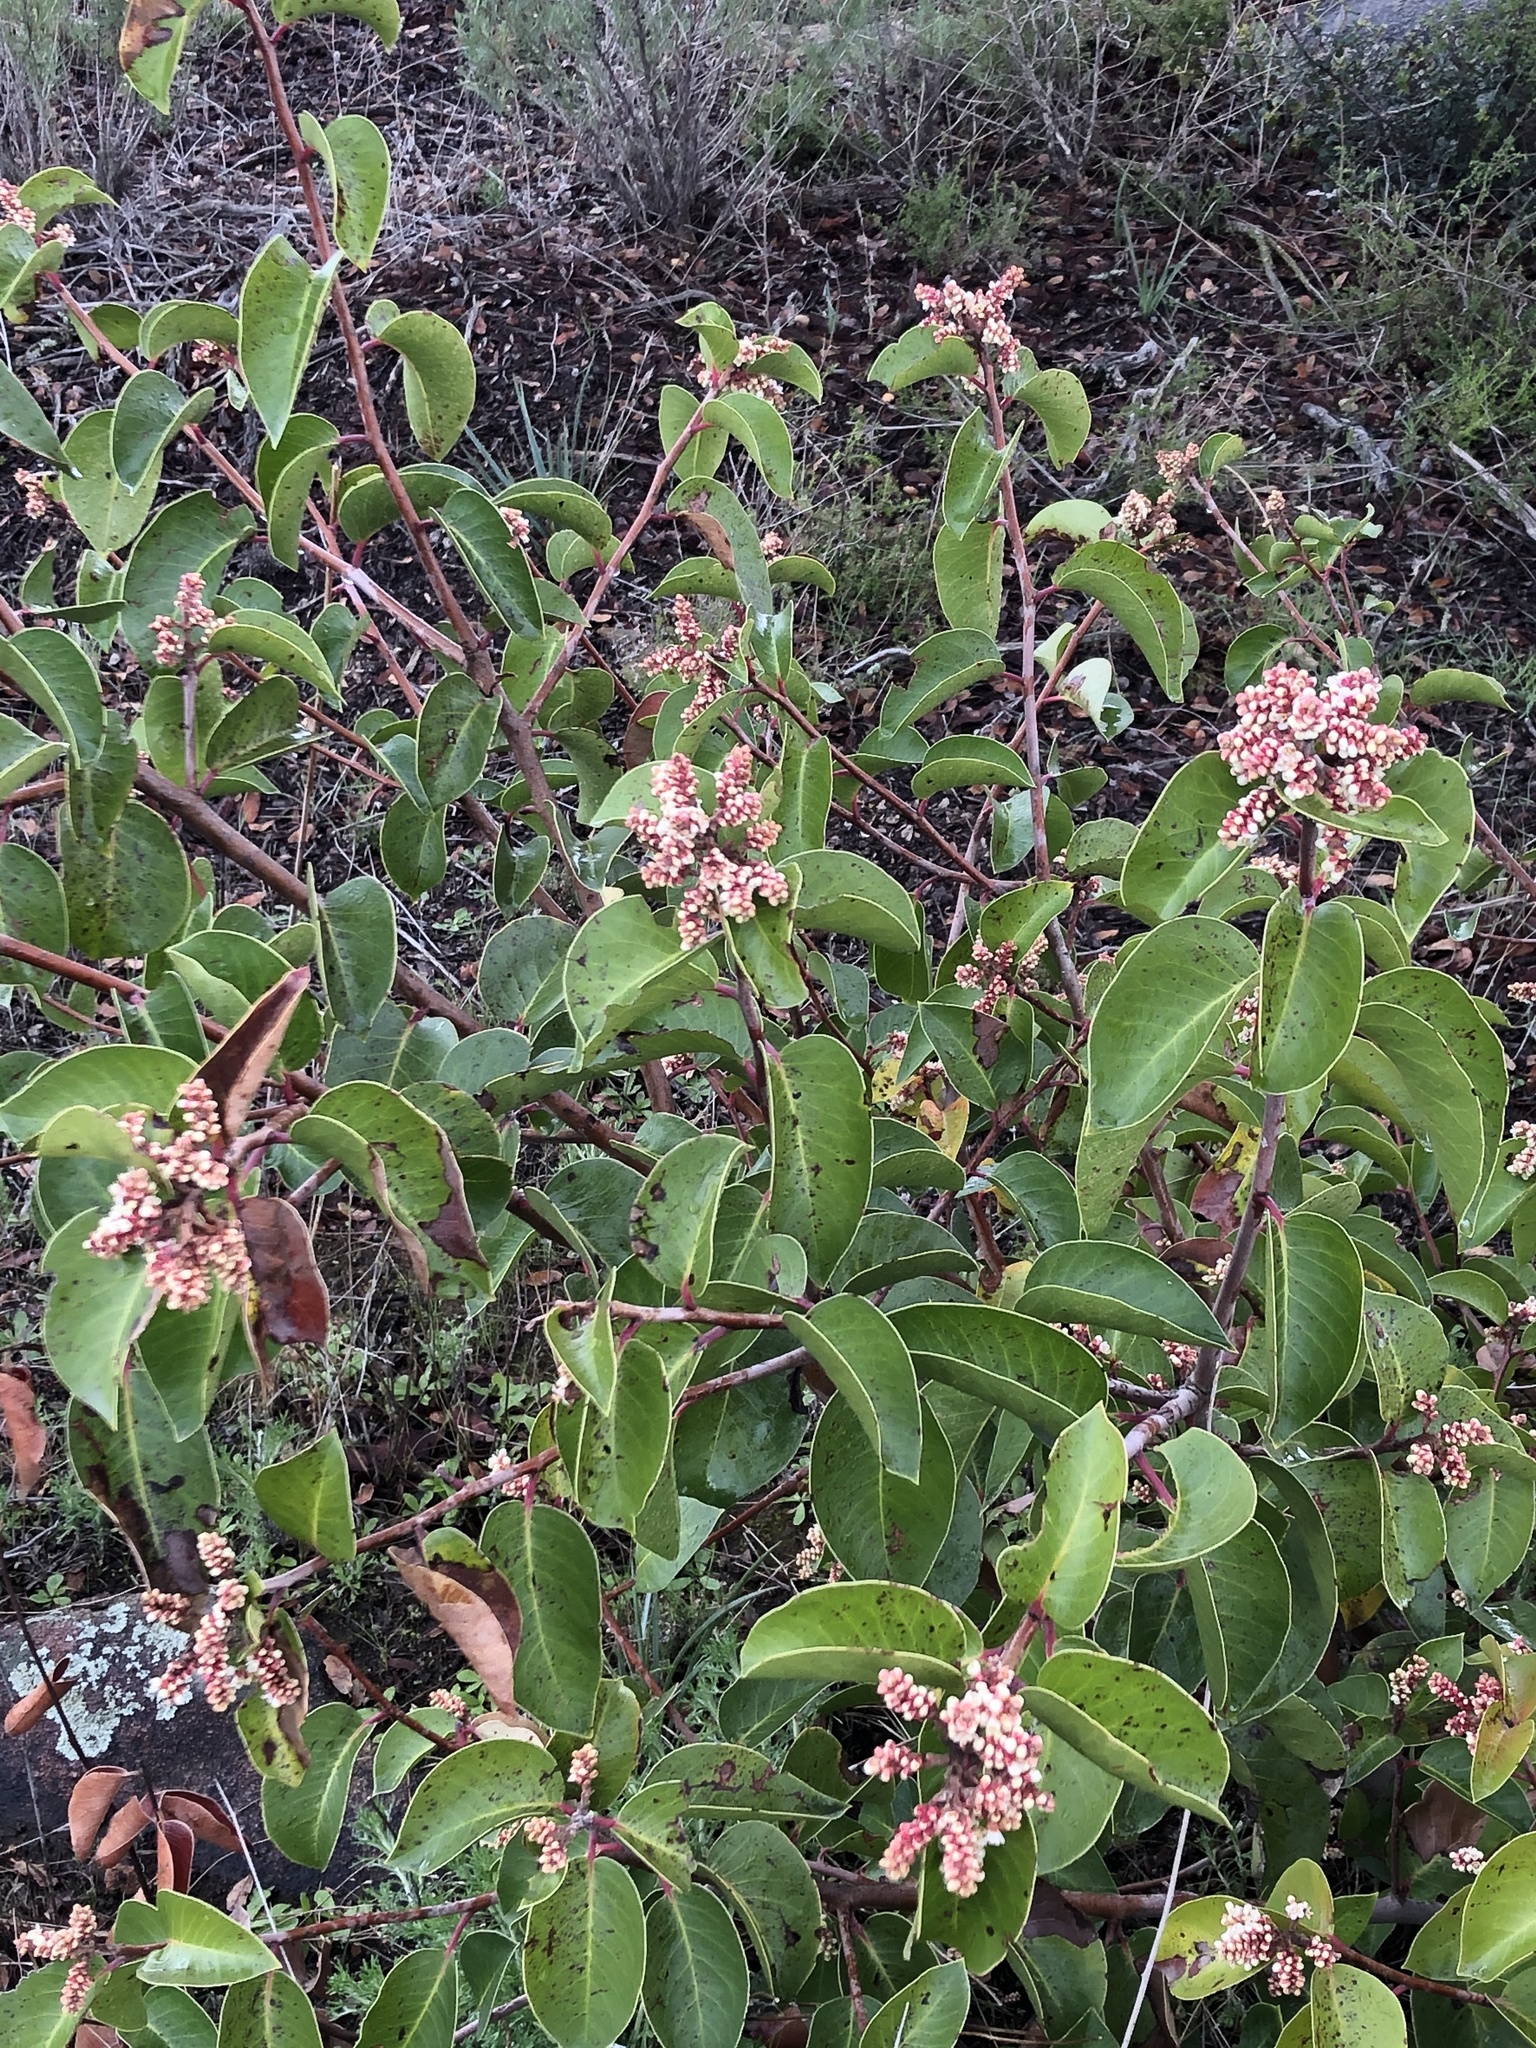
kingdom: Plantae
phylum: Tracheophyta
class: Magnoliopsida
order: Sapindales
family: Anacardiaceae
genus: Rhus
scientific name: Rhus ovata
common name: Sugar sumac
